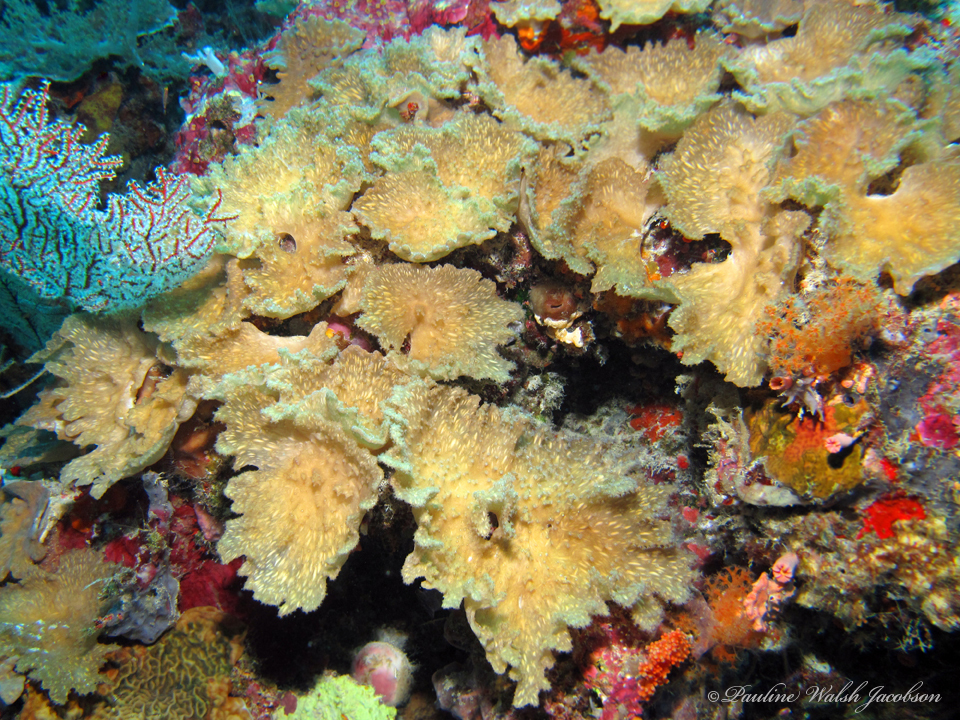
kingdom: Animalia
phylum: Cnidaria
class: Anthozoa
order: Malacalcyonacea
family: Sinulariidae
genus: Sinularia
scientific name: Sinularia brassica
